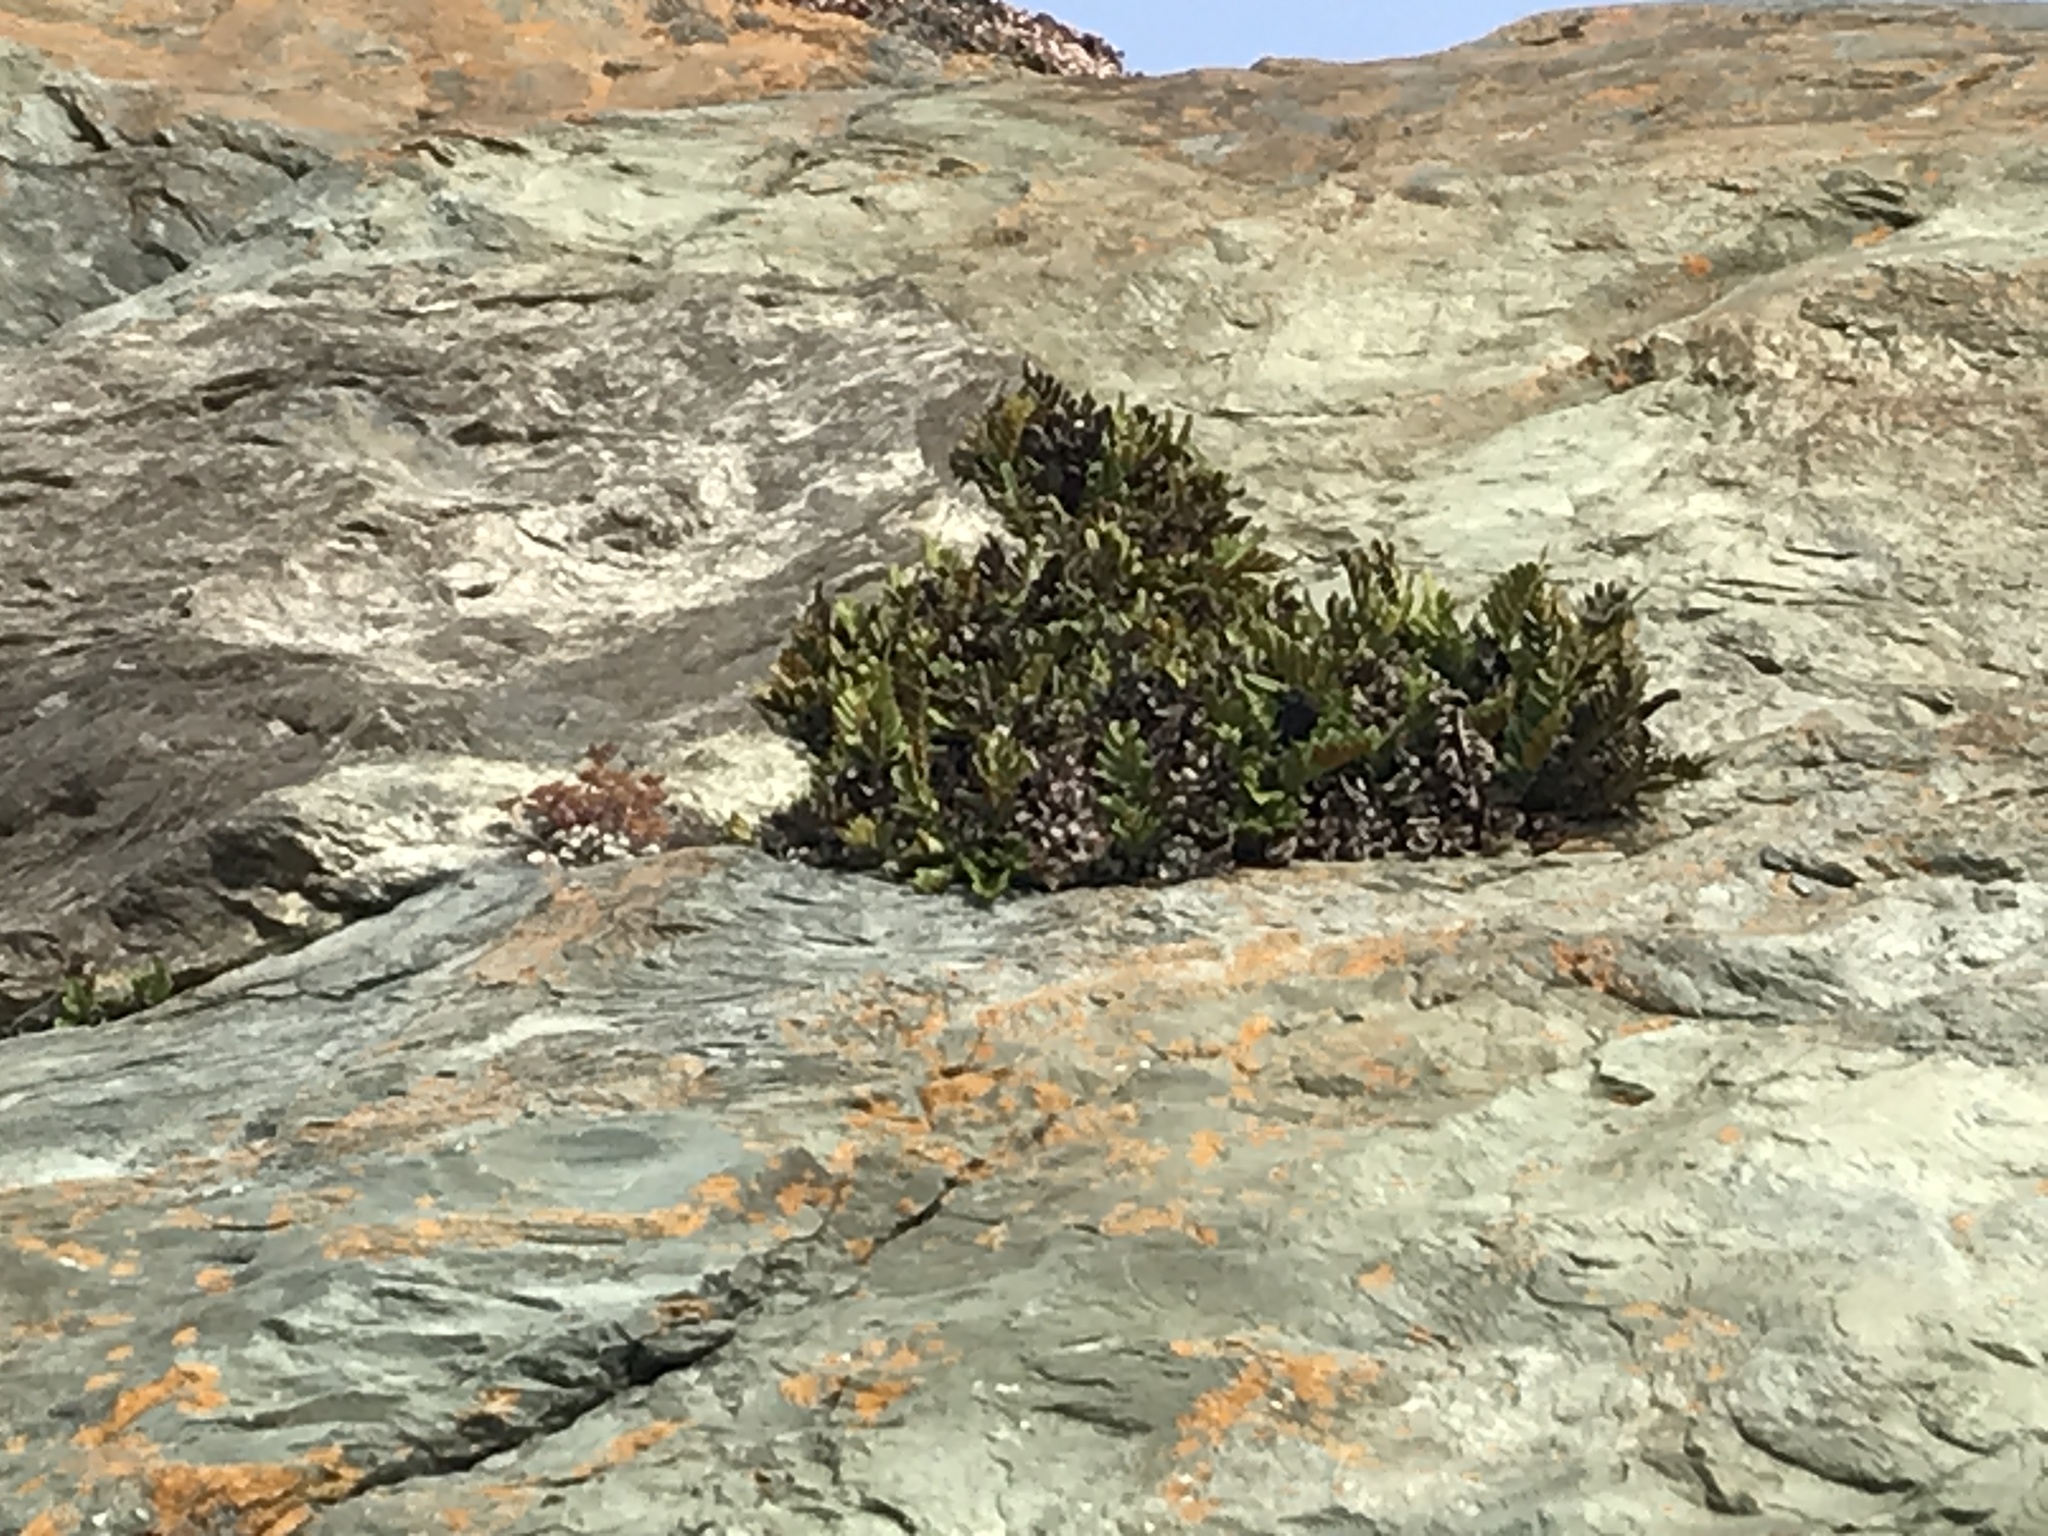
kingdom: Plantae
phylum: Tracheophyta
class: Polypodiopsida
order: Polypodiales
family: Polypodiaceae
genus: Polypodium
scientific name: Polypodium scouleri
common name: Scouler's polypody
